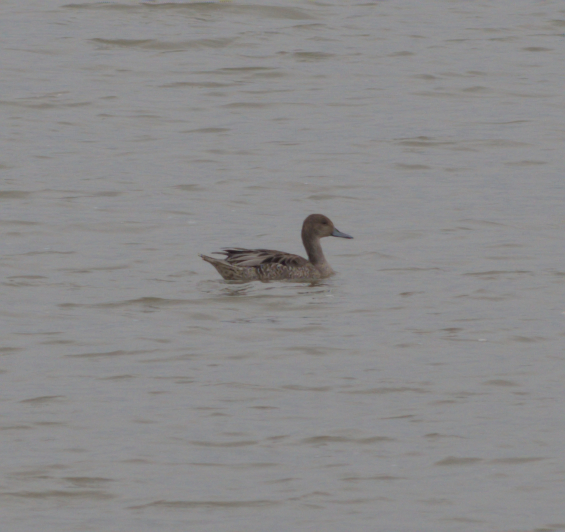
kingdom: Animalia
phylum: Chordata
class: Aves
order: Anseriformes
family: Anatidae
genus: Anas
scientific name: Anas acuta
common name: Northern pintail
